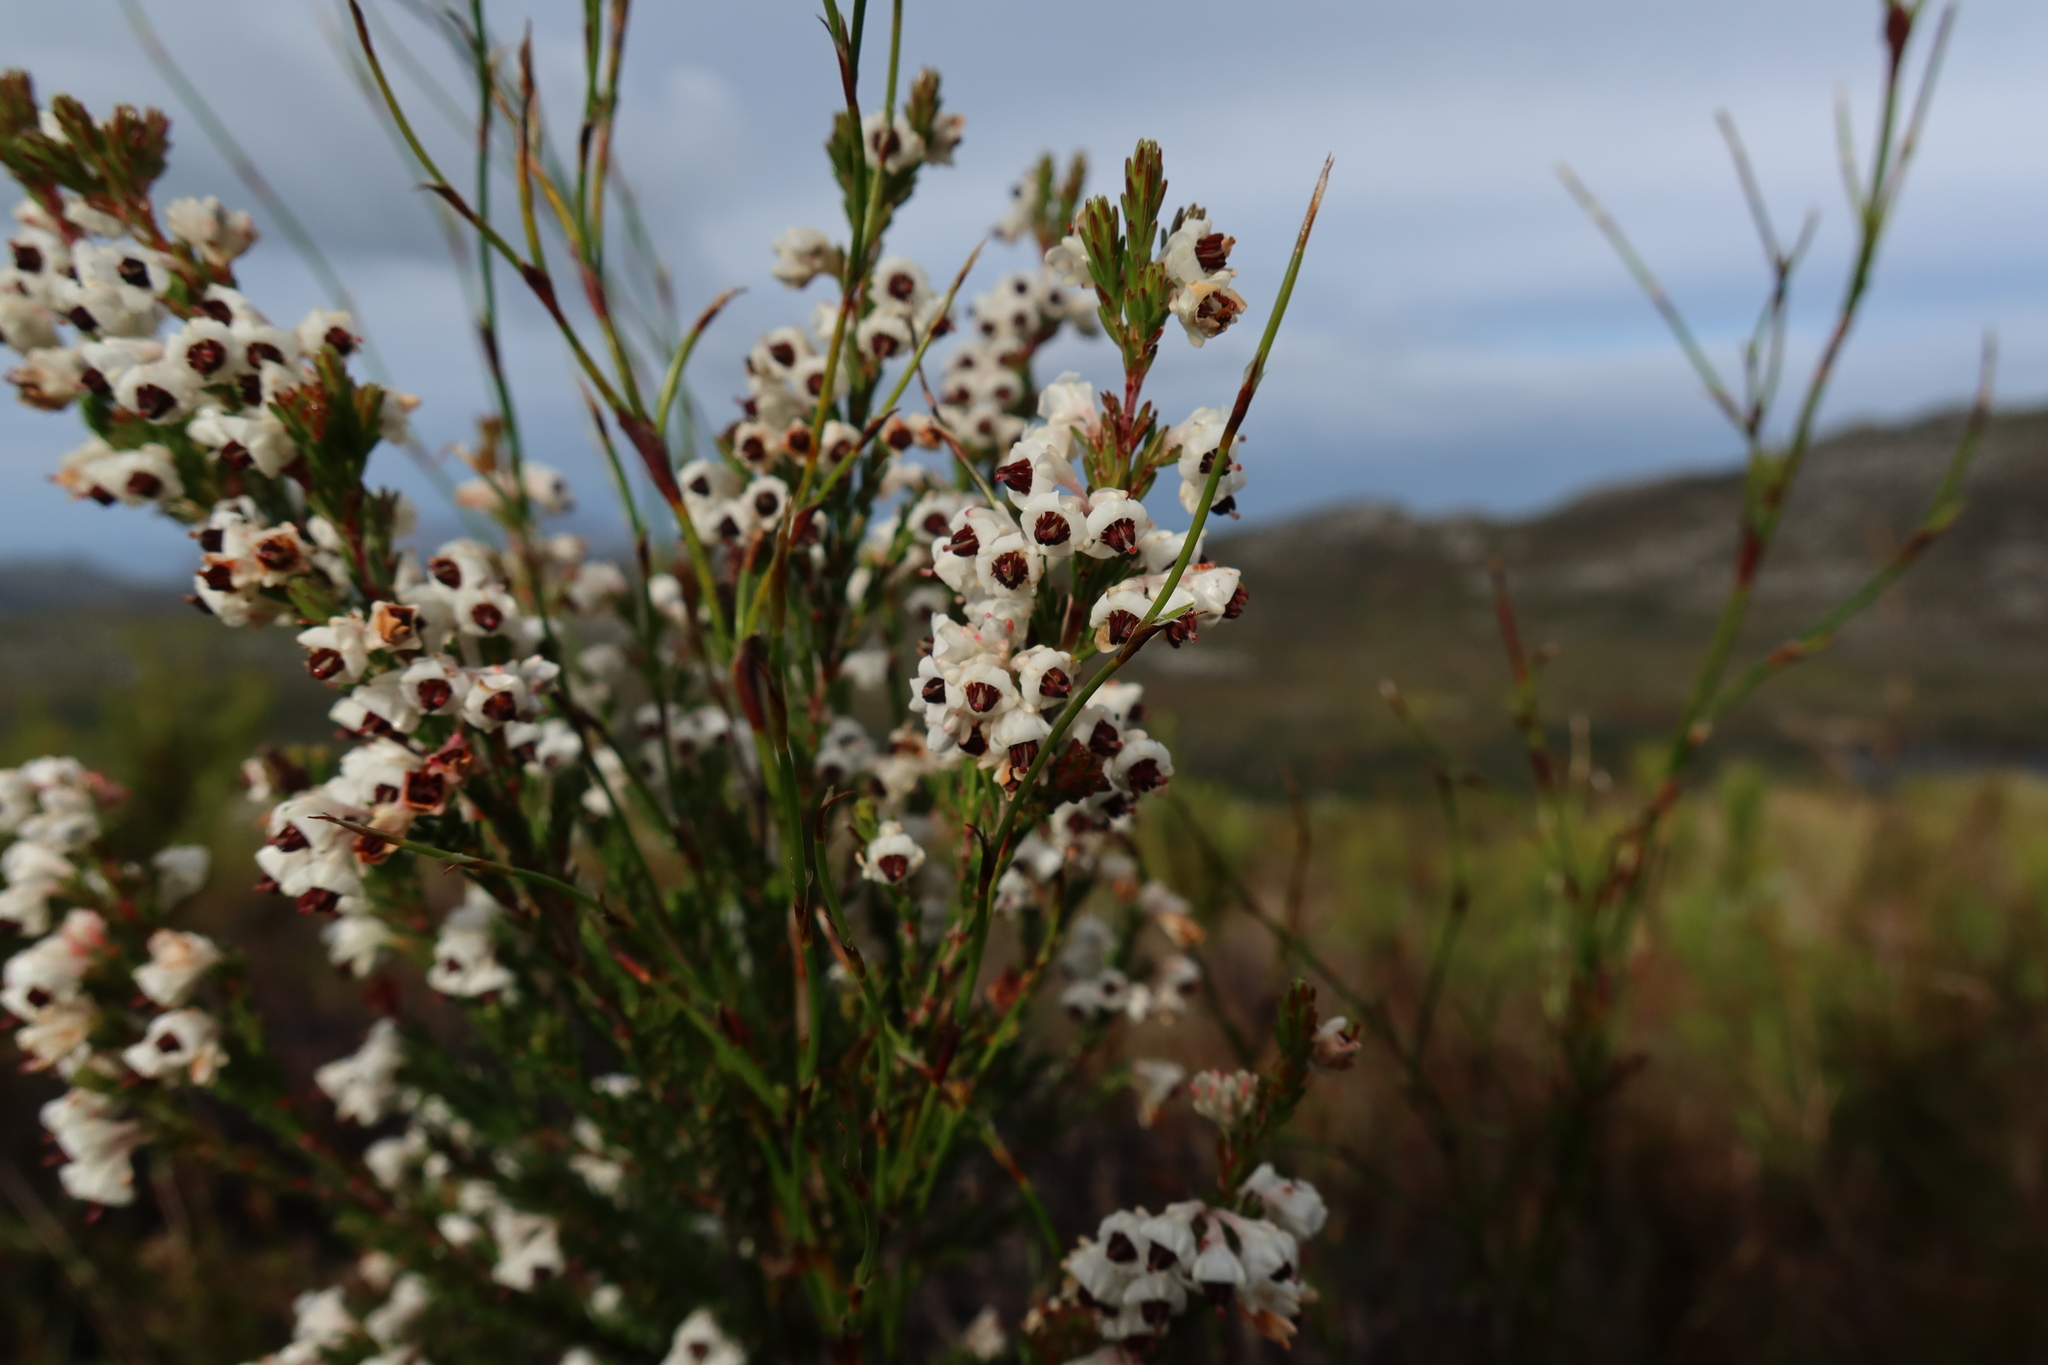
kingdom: Plantae
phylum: Tracheophyta
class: Magnoliopsida
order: Ericales
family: Ericaceae
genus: Erica
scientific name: Erica calycina
